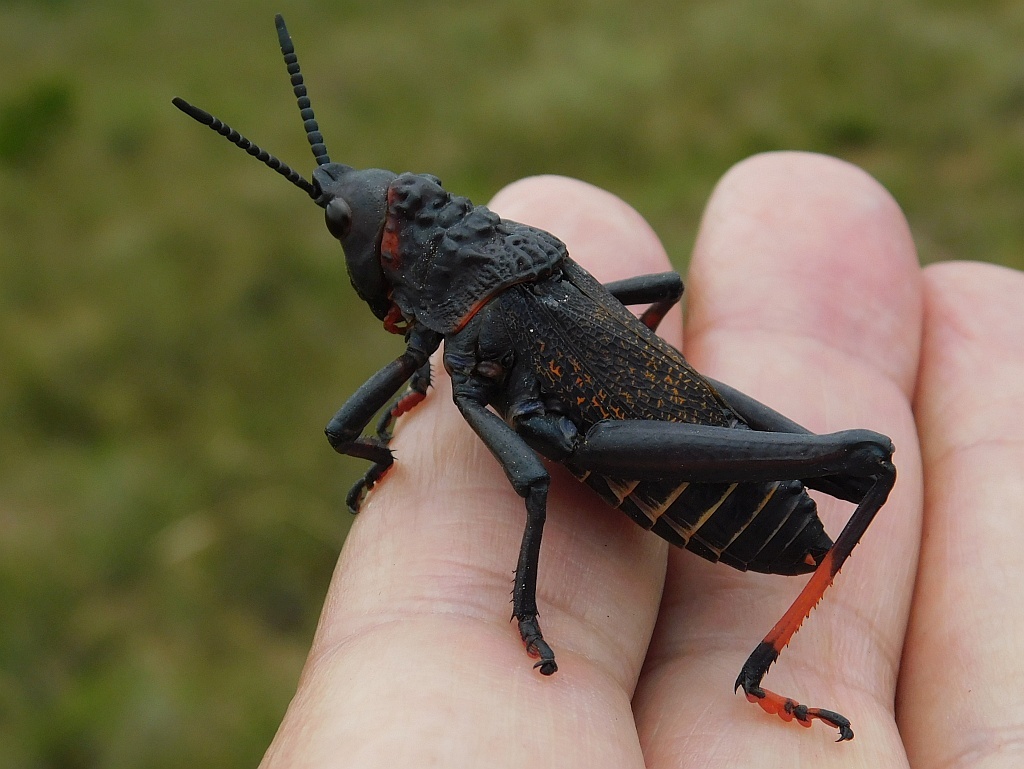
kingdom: Animalia
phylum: Arthropoda
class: Insecta
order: Orthoptera
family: Pyrgomorphidae
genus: Dictyophorus
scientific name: Dictyophorus spumans
